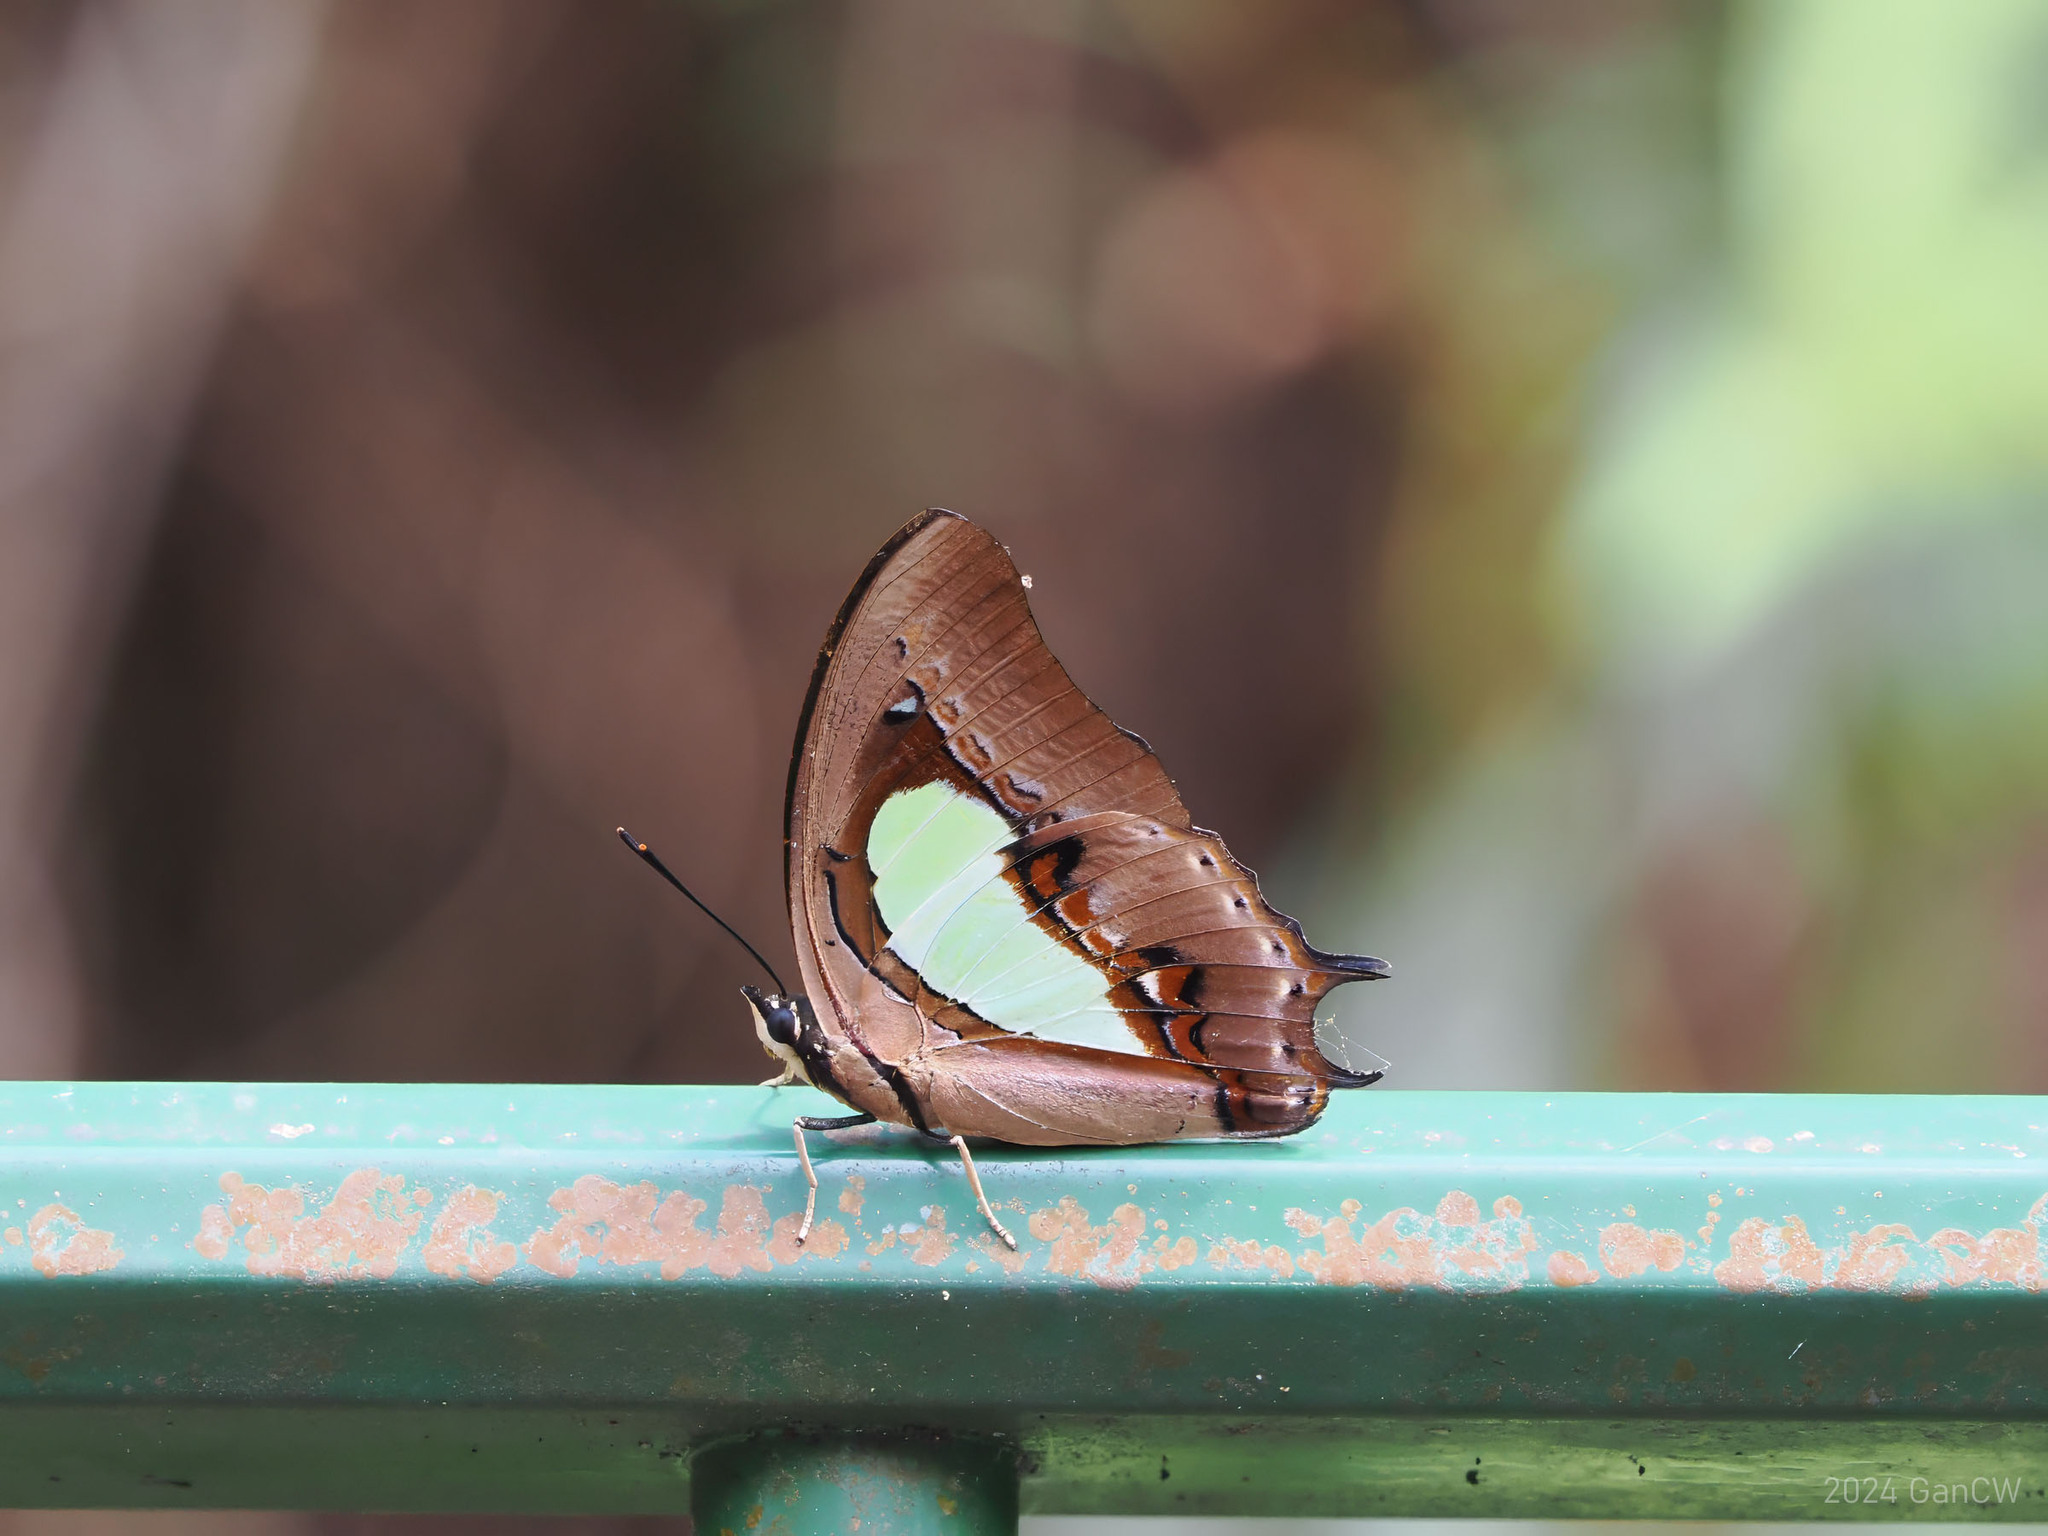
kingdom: Animalia
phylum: Arthropoda
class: Insecta
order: Lepidoptera
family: Nymphalidae
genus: Polyura
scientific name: Polyura hebe
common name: Plain nawab
